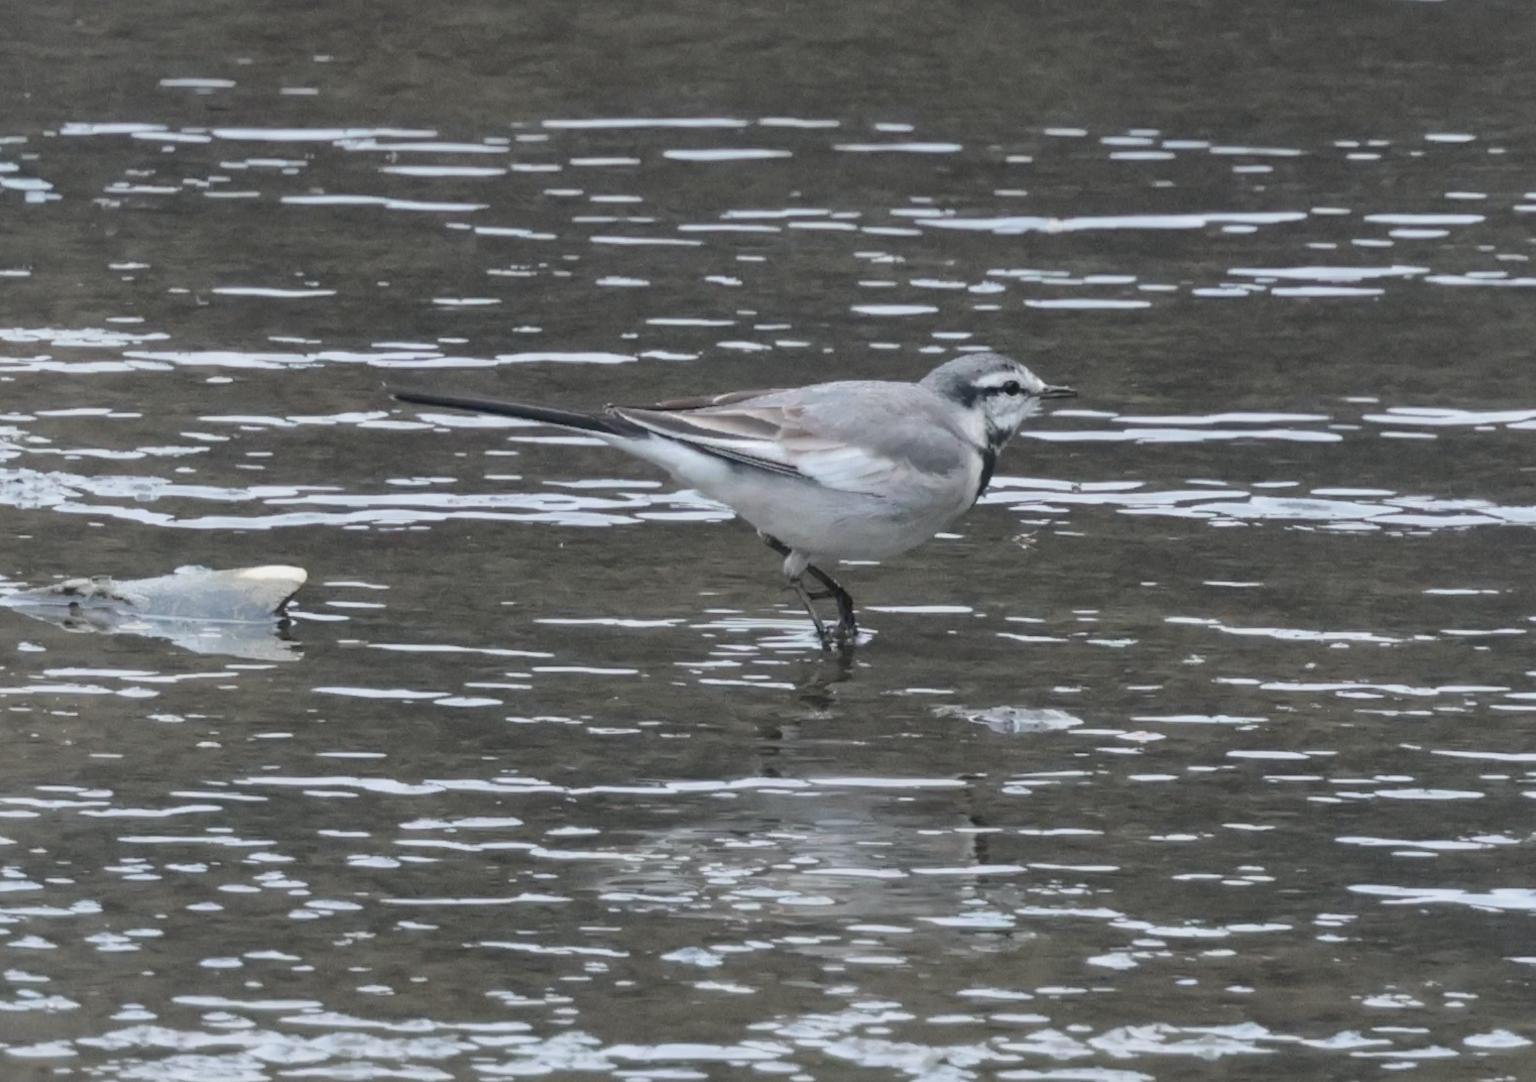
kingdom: Animalia
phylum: Chordata
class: Aves
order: Passeriformes
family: Motacillidae
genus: Motacilla
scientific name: Motacilla alba
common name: White wagtail
